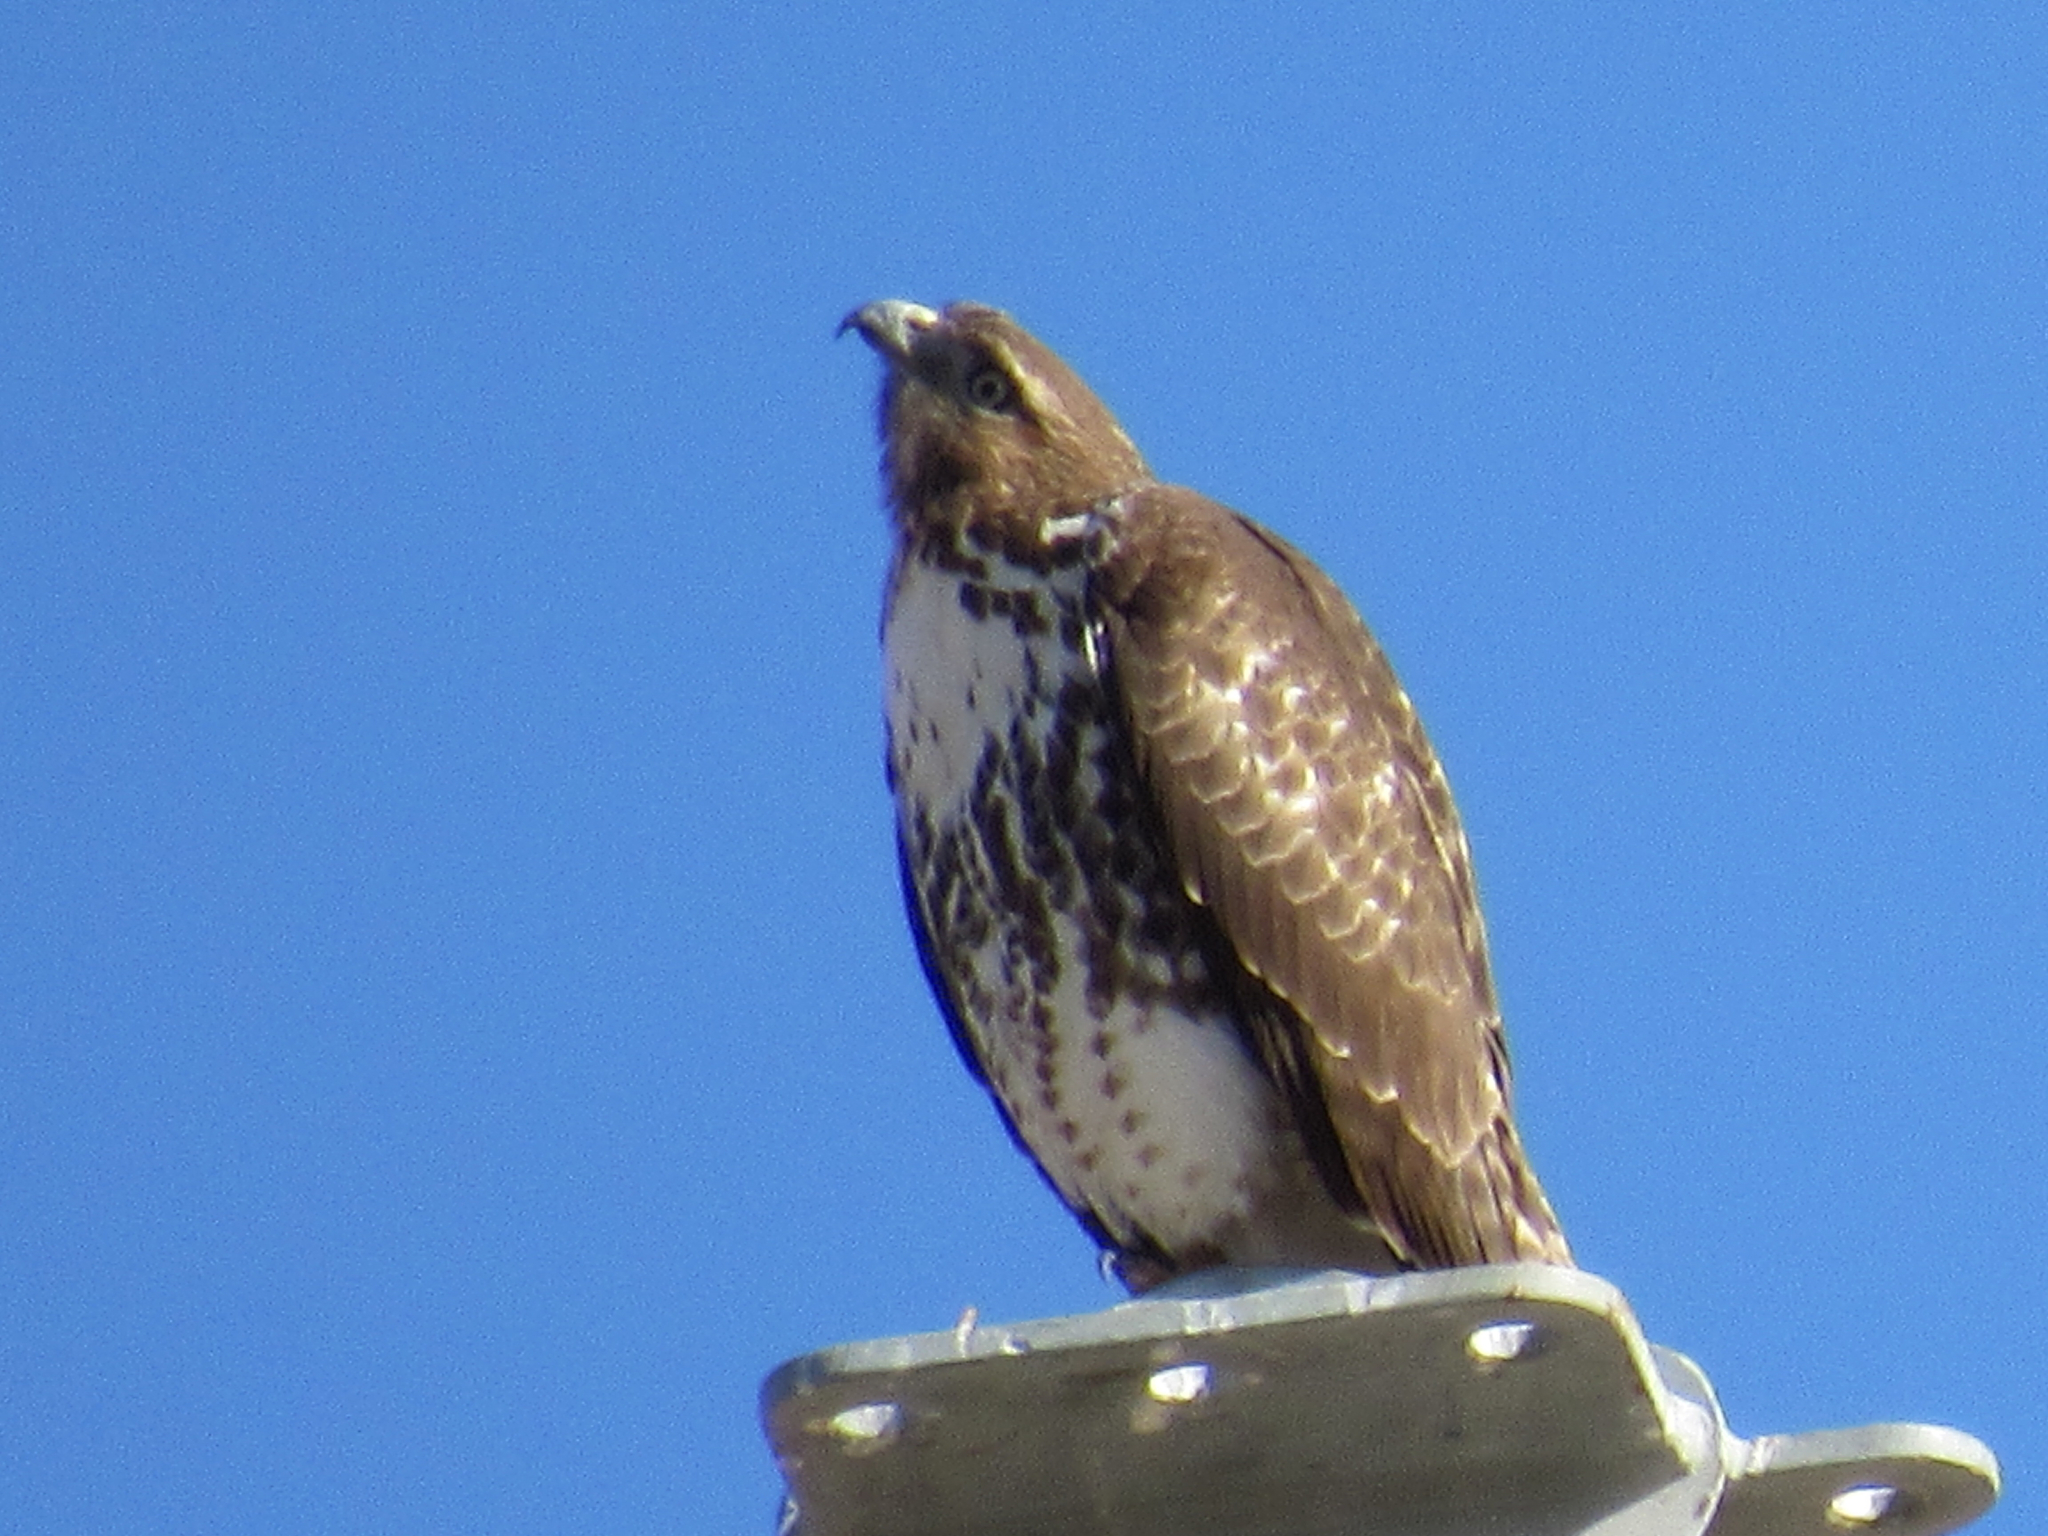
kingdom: Animalia
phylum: Chordata
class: Aves
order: Accipitriformes
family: Accipitridae
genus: Buteo
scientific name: Buteo jamaicensis
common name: Red-tailed hawk
